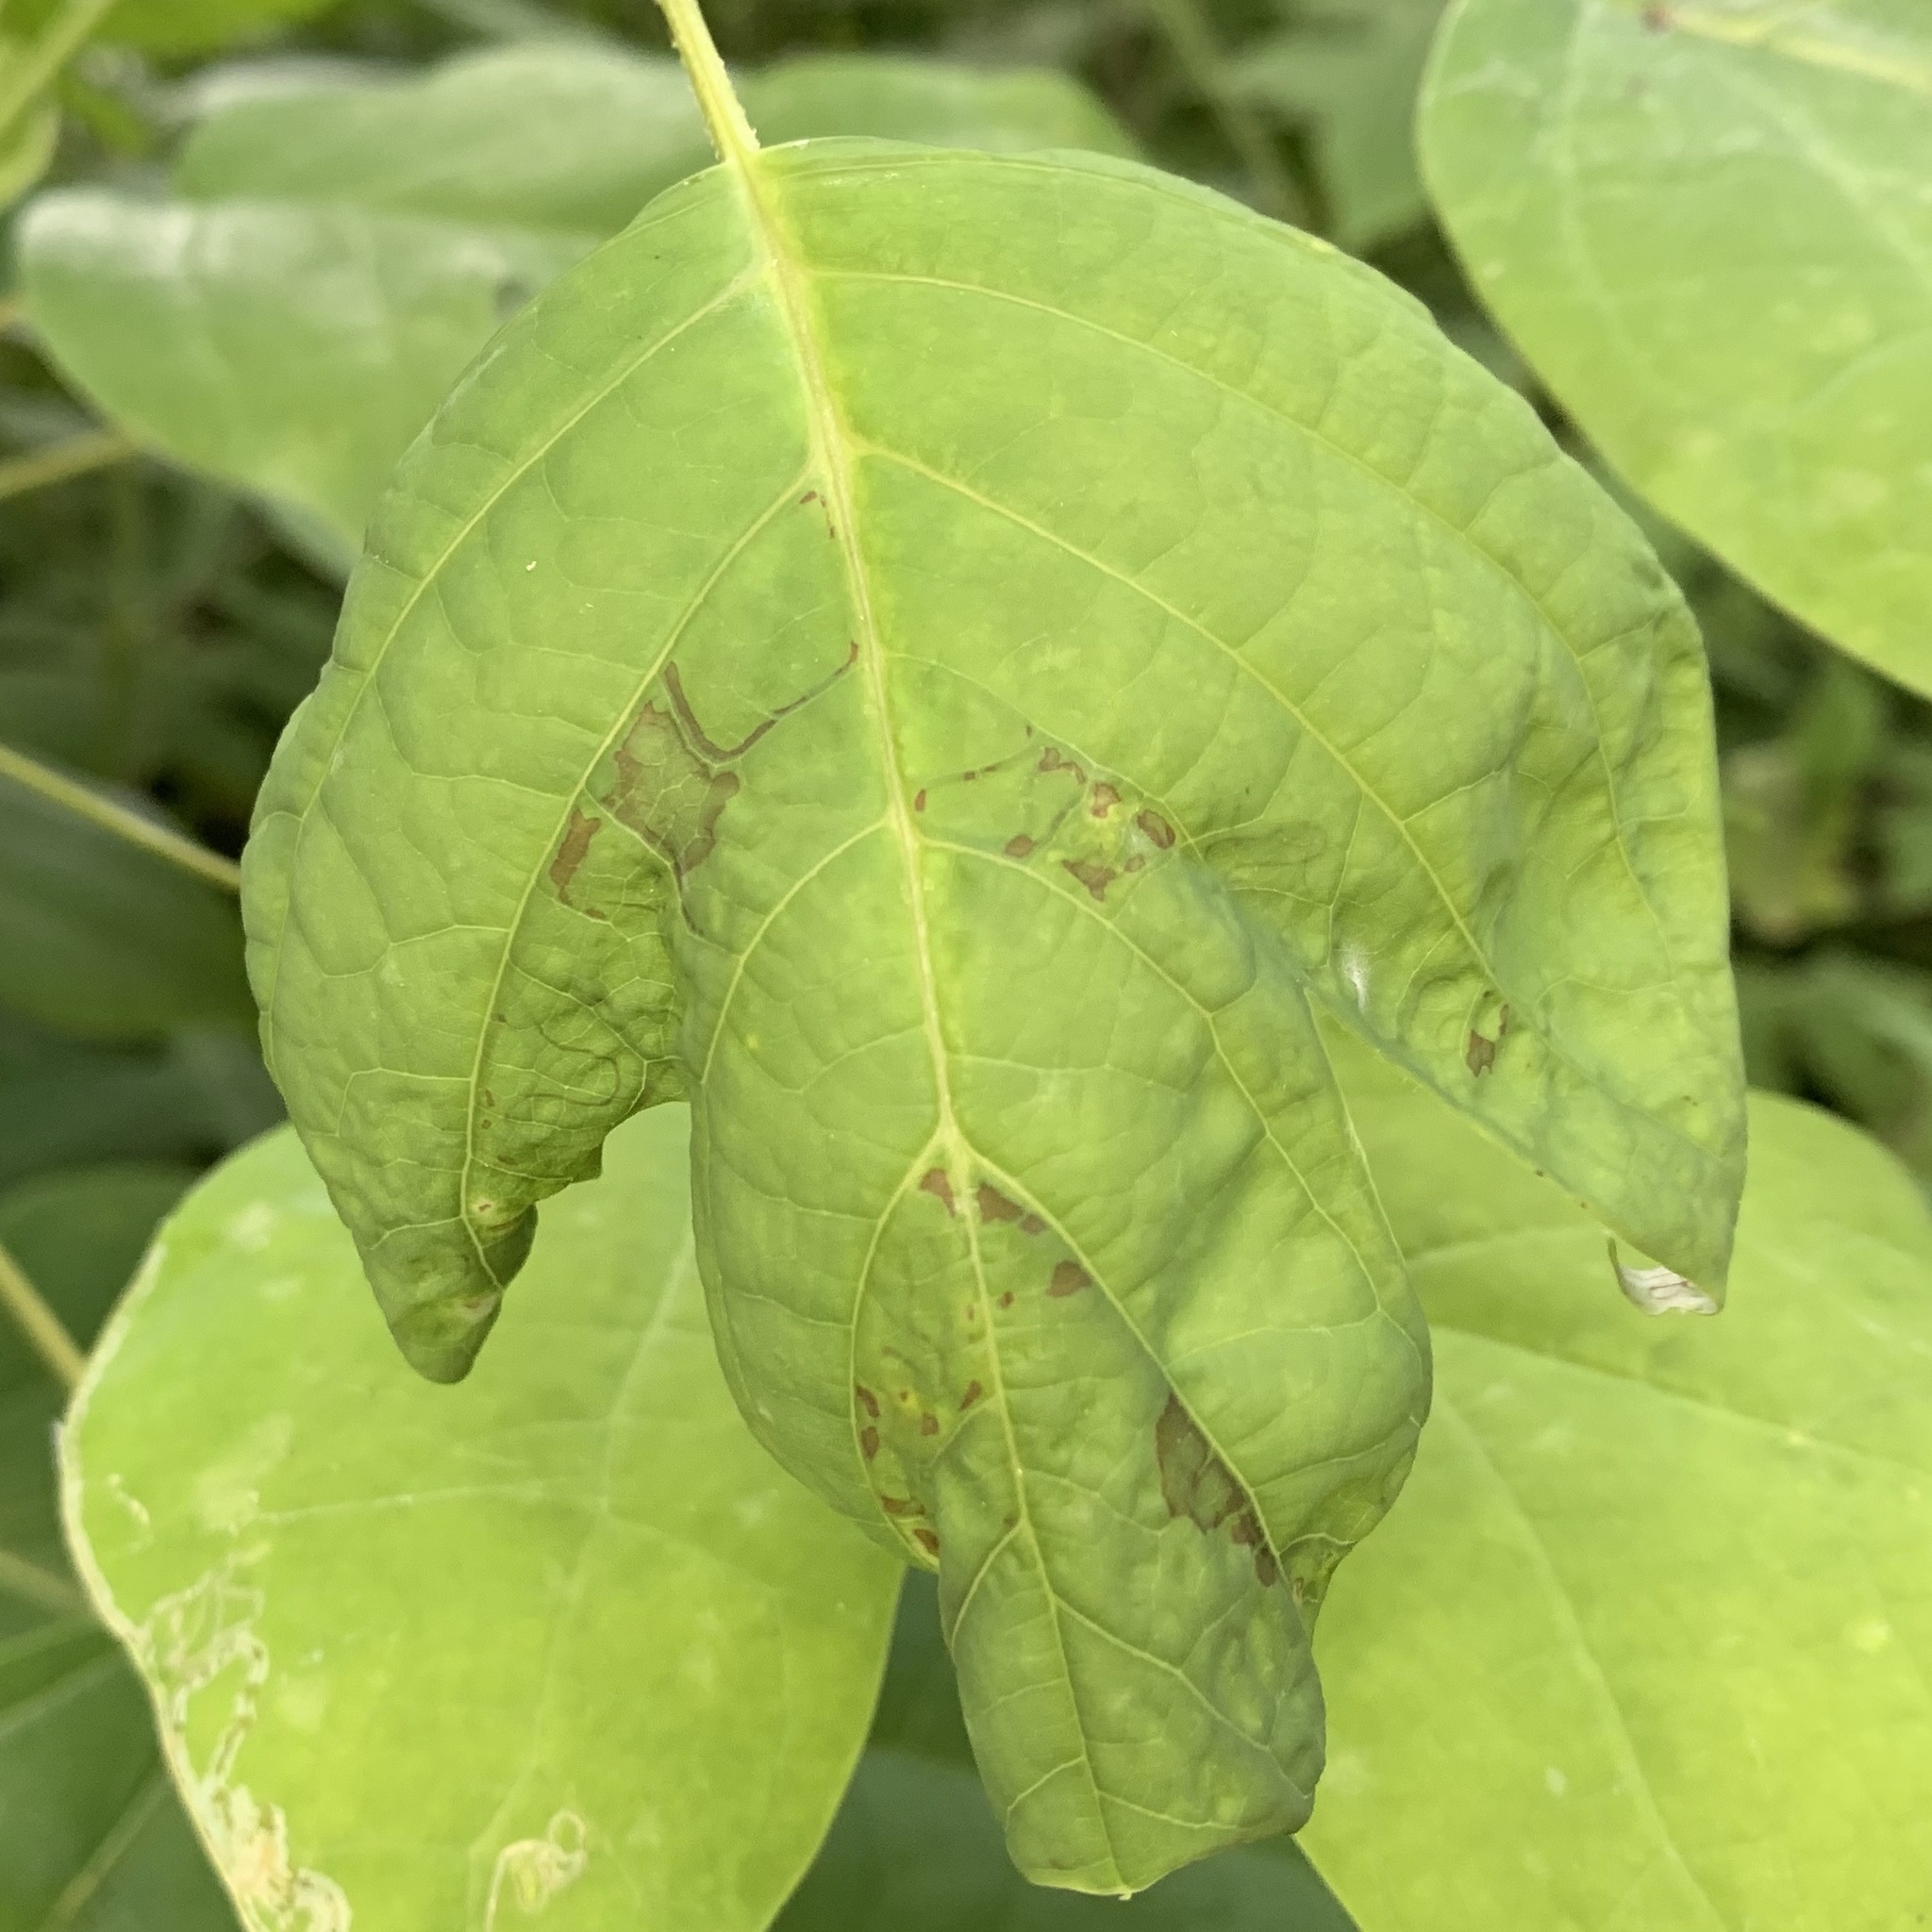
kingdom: Animalia
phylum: Arthropoda
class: Insecta
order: Lepidoptera
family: Gracillariidae
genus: Phyllocnistis
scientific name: Phyllocnistis liriodendronella
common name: Tulip tree leaf miner
